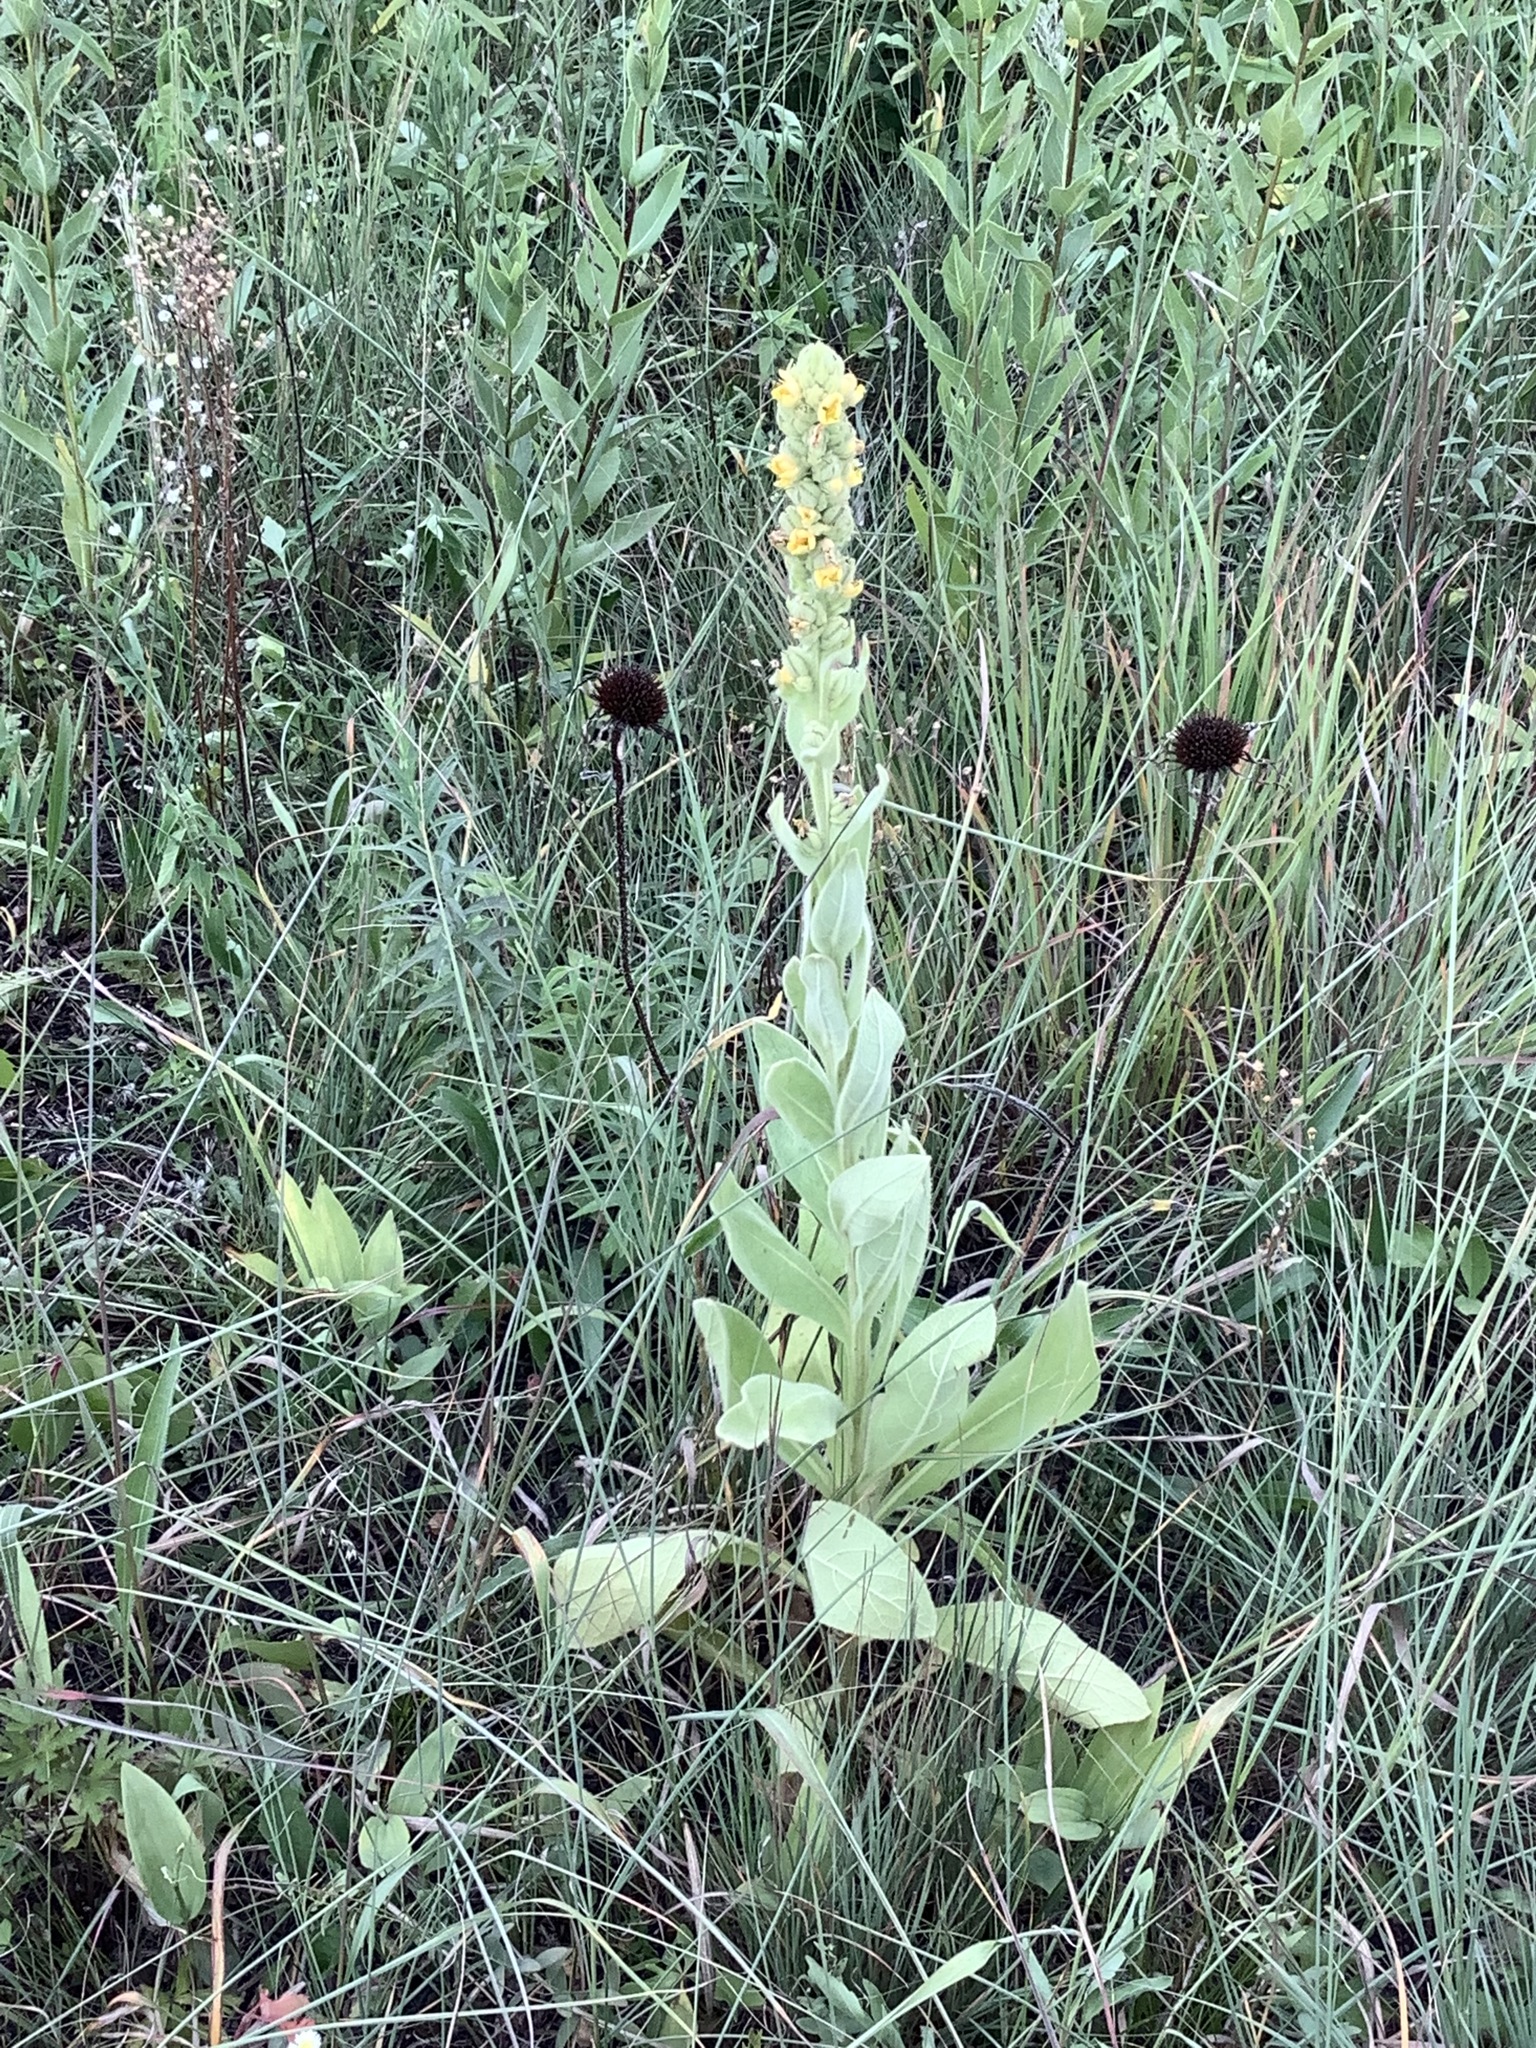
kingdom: Plantae
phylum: Tracheophyta
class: Magnoliopsida
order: Lamiales
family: Scrophulariaceae
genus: Verbascum
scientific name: Verbascum thapsus
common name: Common mullein
